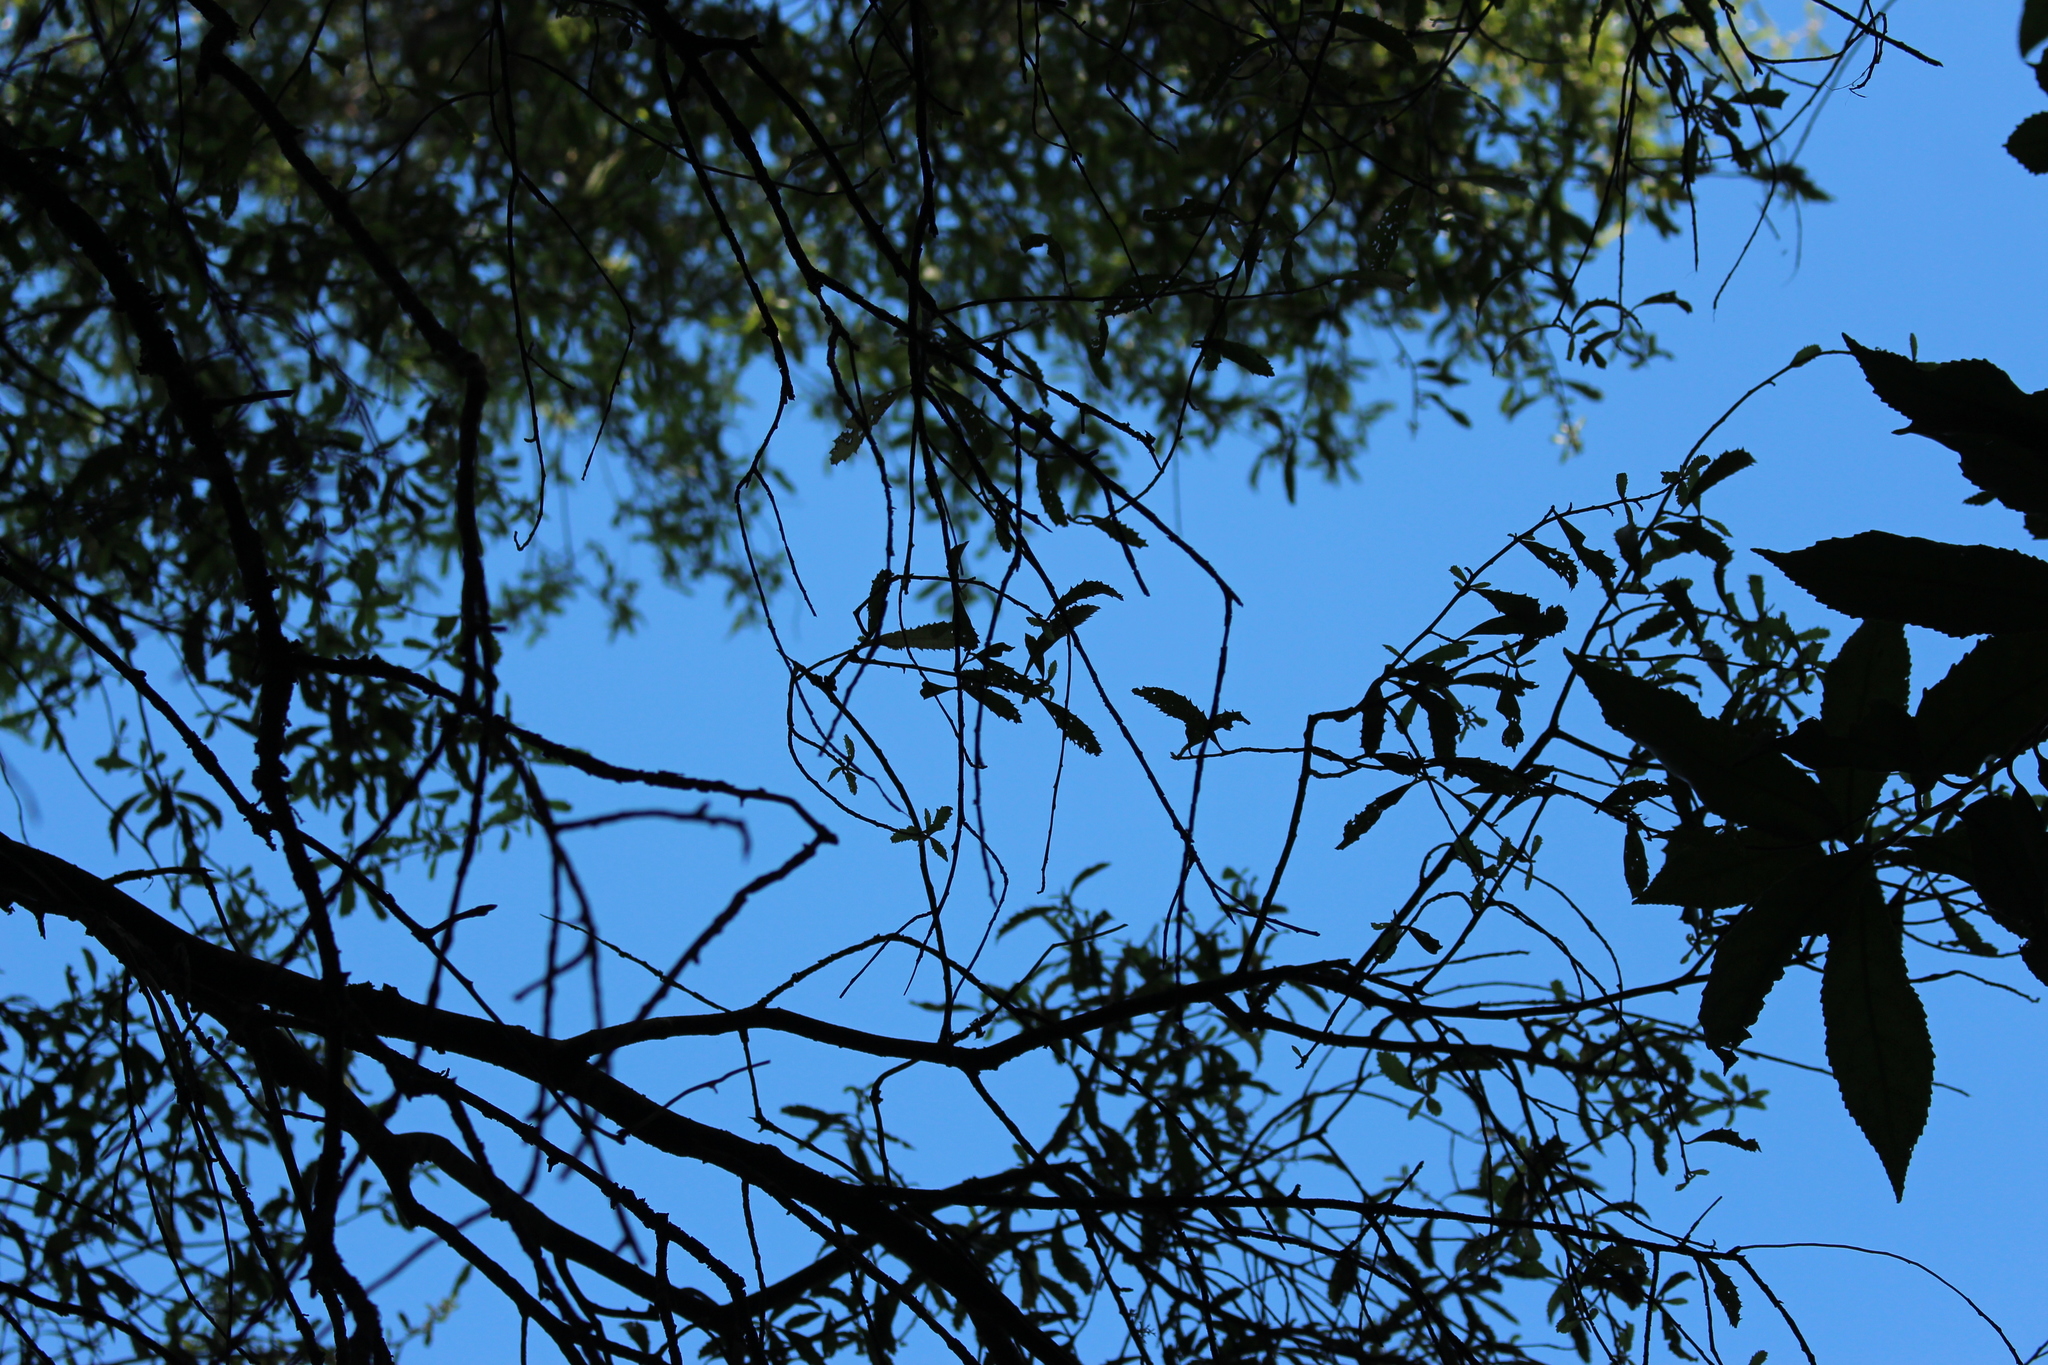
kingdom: Plantae
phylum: Tracheophyta
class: Magnoliopsida
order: Malvales
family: Malvaceae
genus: Hoheria
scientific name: Hoheria angustifolia
